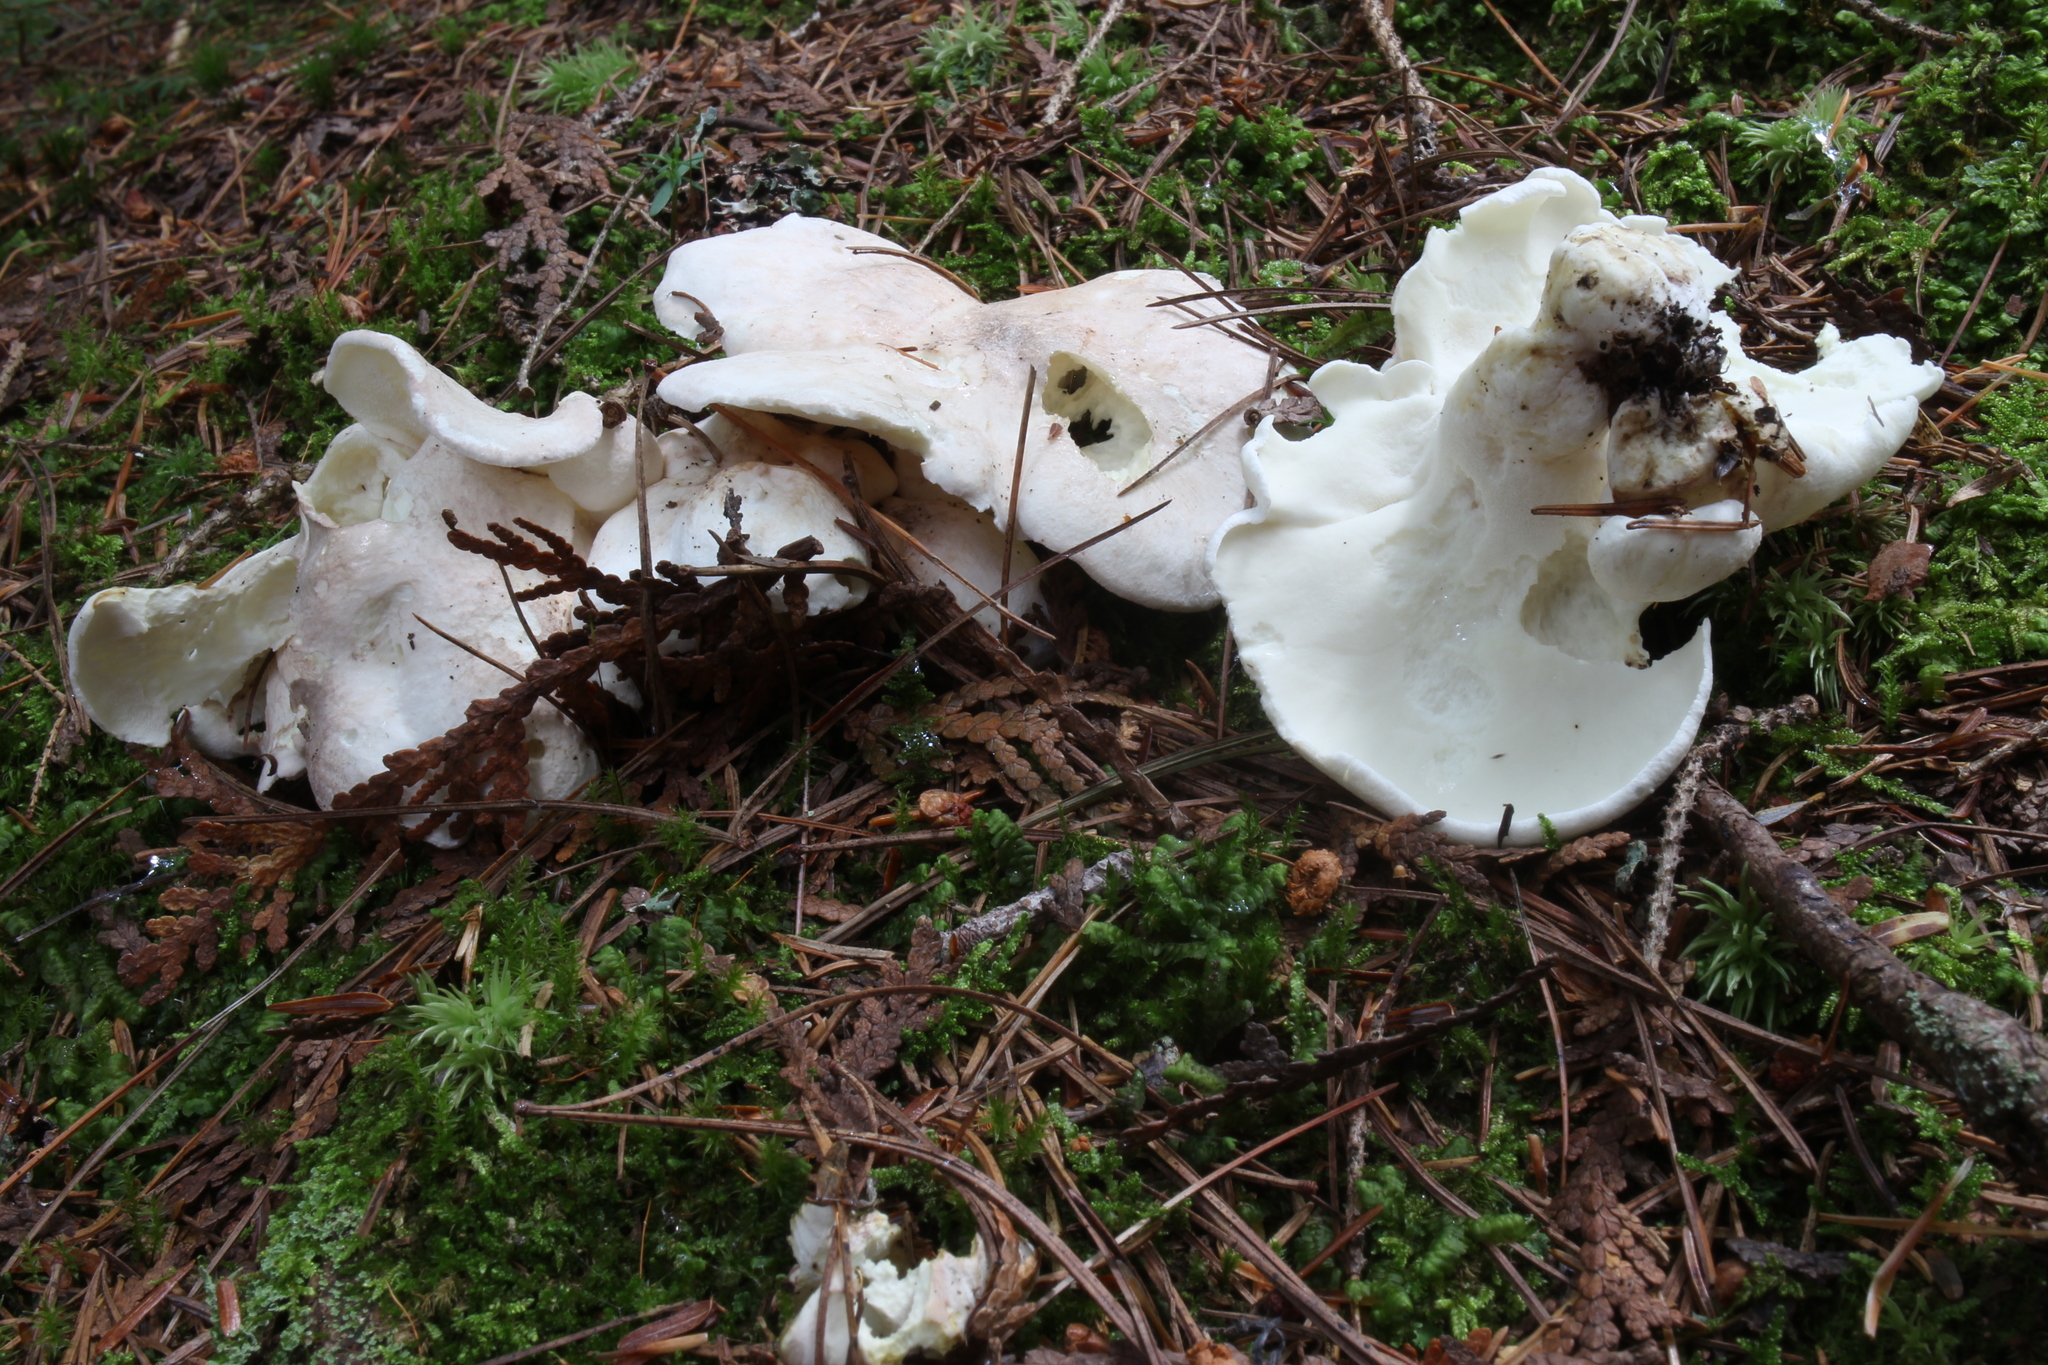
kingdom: Fungi
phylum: Basidiomycota
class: Agaricomycetes
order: Russulales
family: Albatrellaceae
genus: Albatrellus
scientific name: Albatrellus ovinus
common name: Forest lamb
